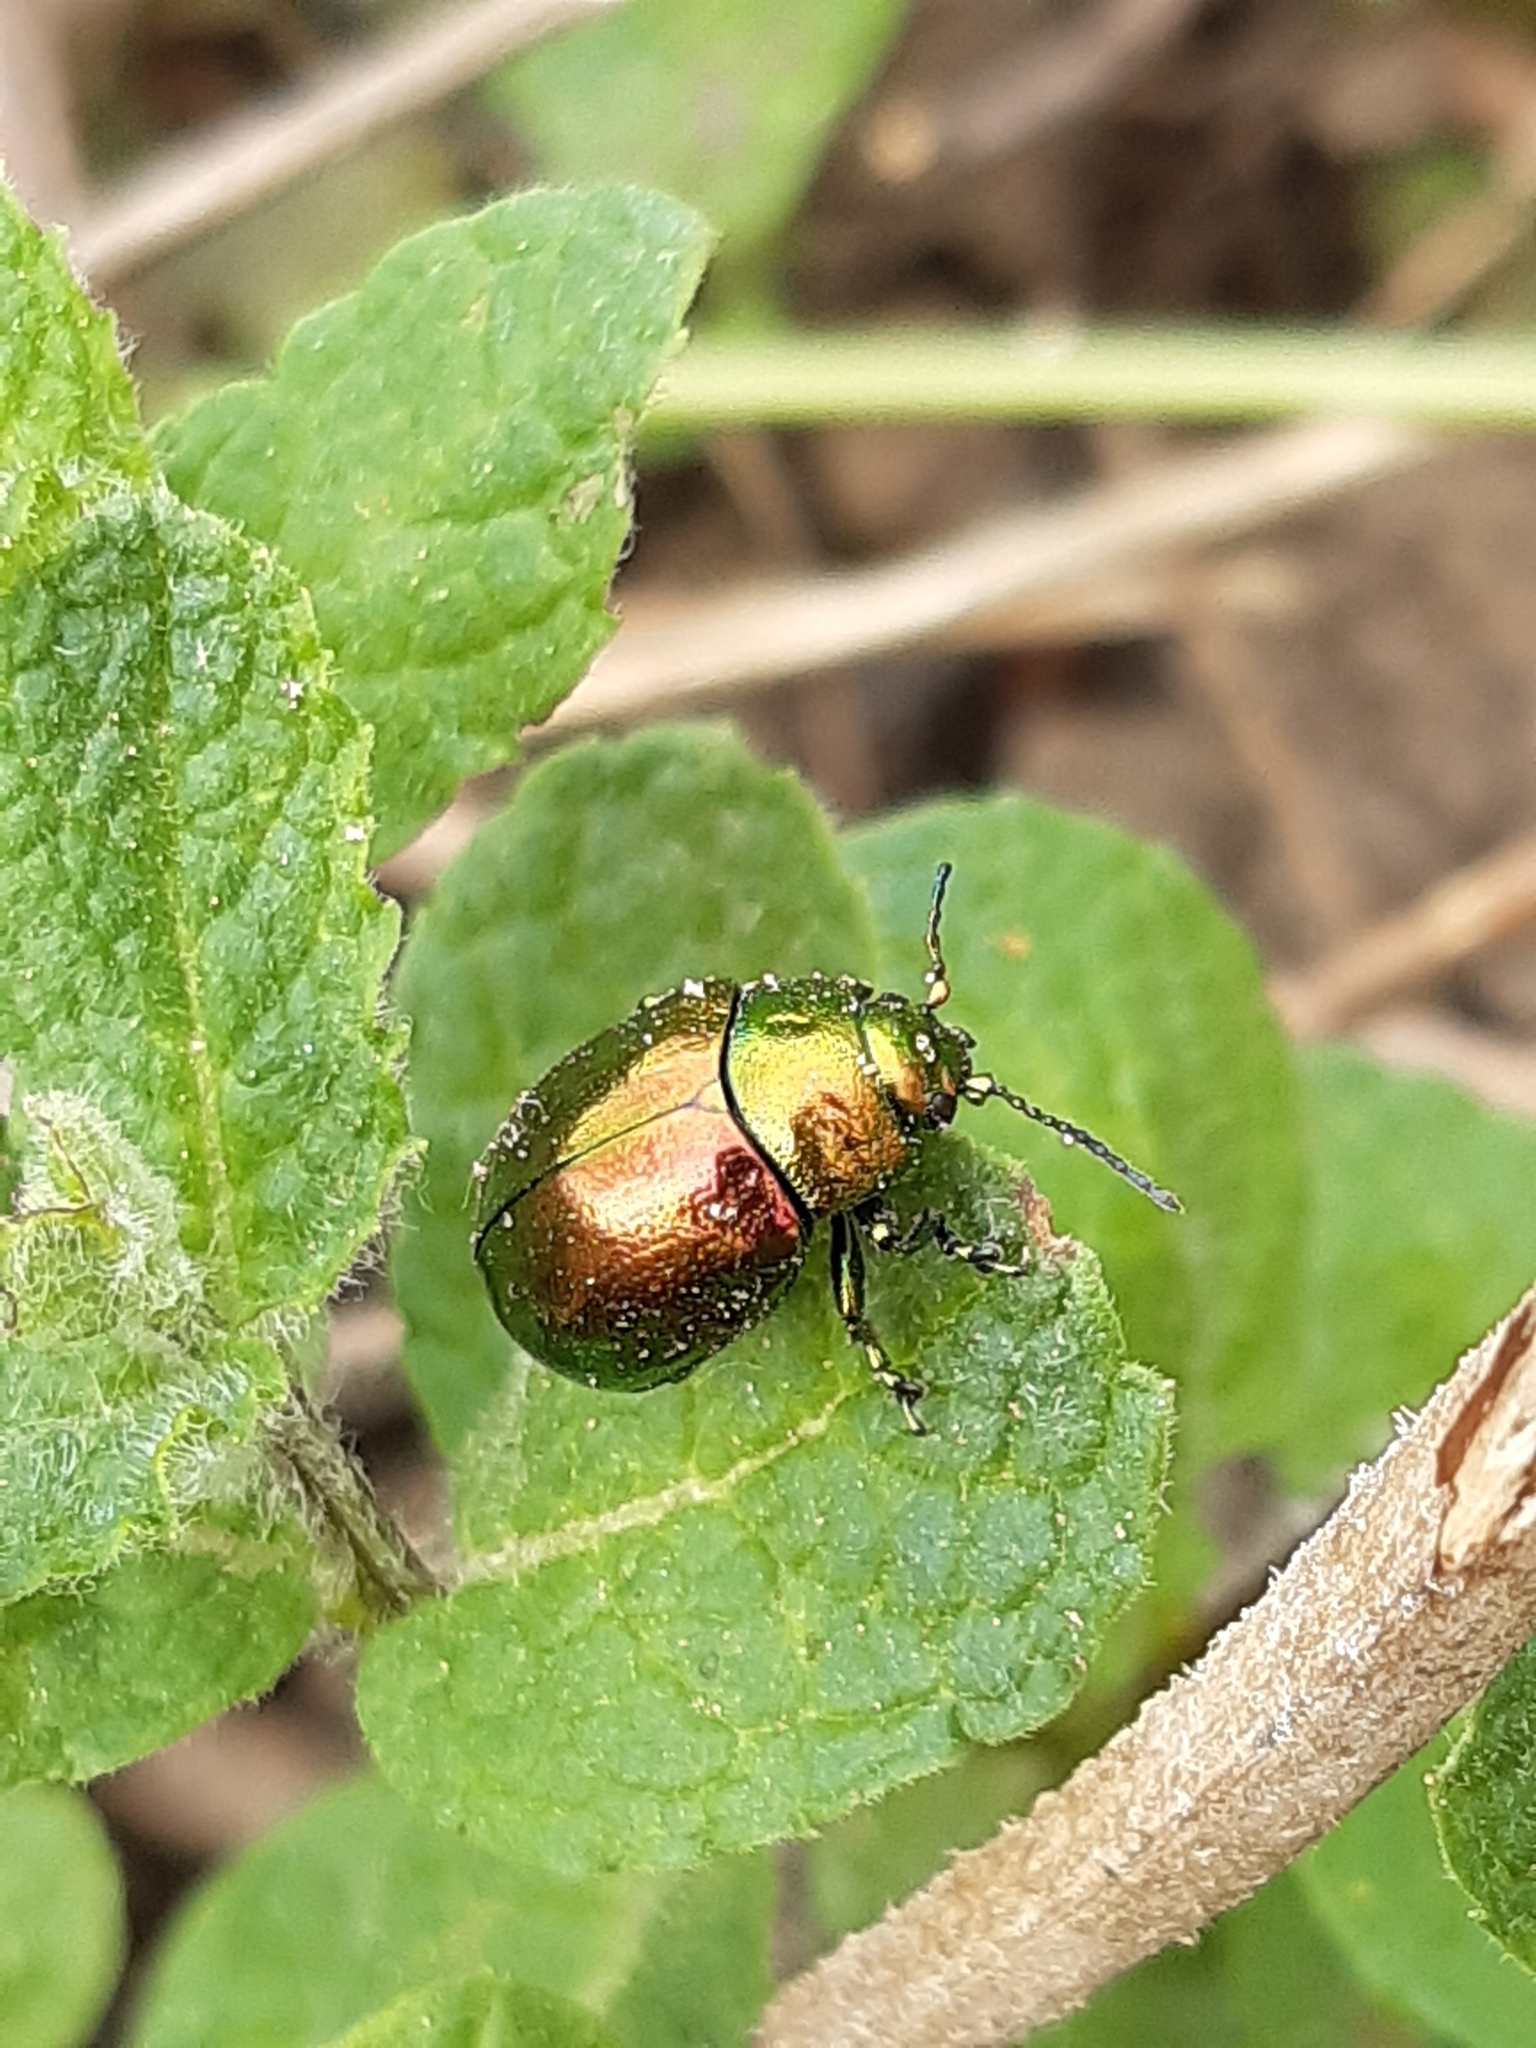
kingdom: Animalia
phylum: Arthropoda
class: Insecta
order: Coleoptera
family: Chrysomelidae
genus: Chrysolina
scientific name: Chrysolina herbacea
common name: Mint leaf beatle
